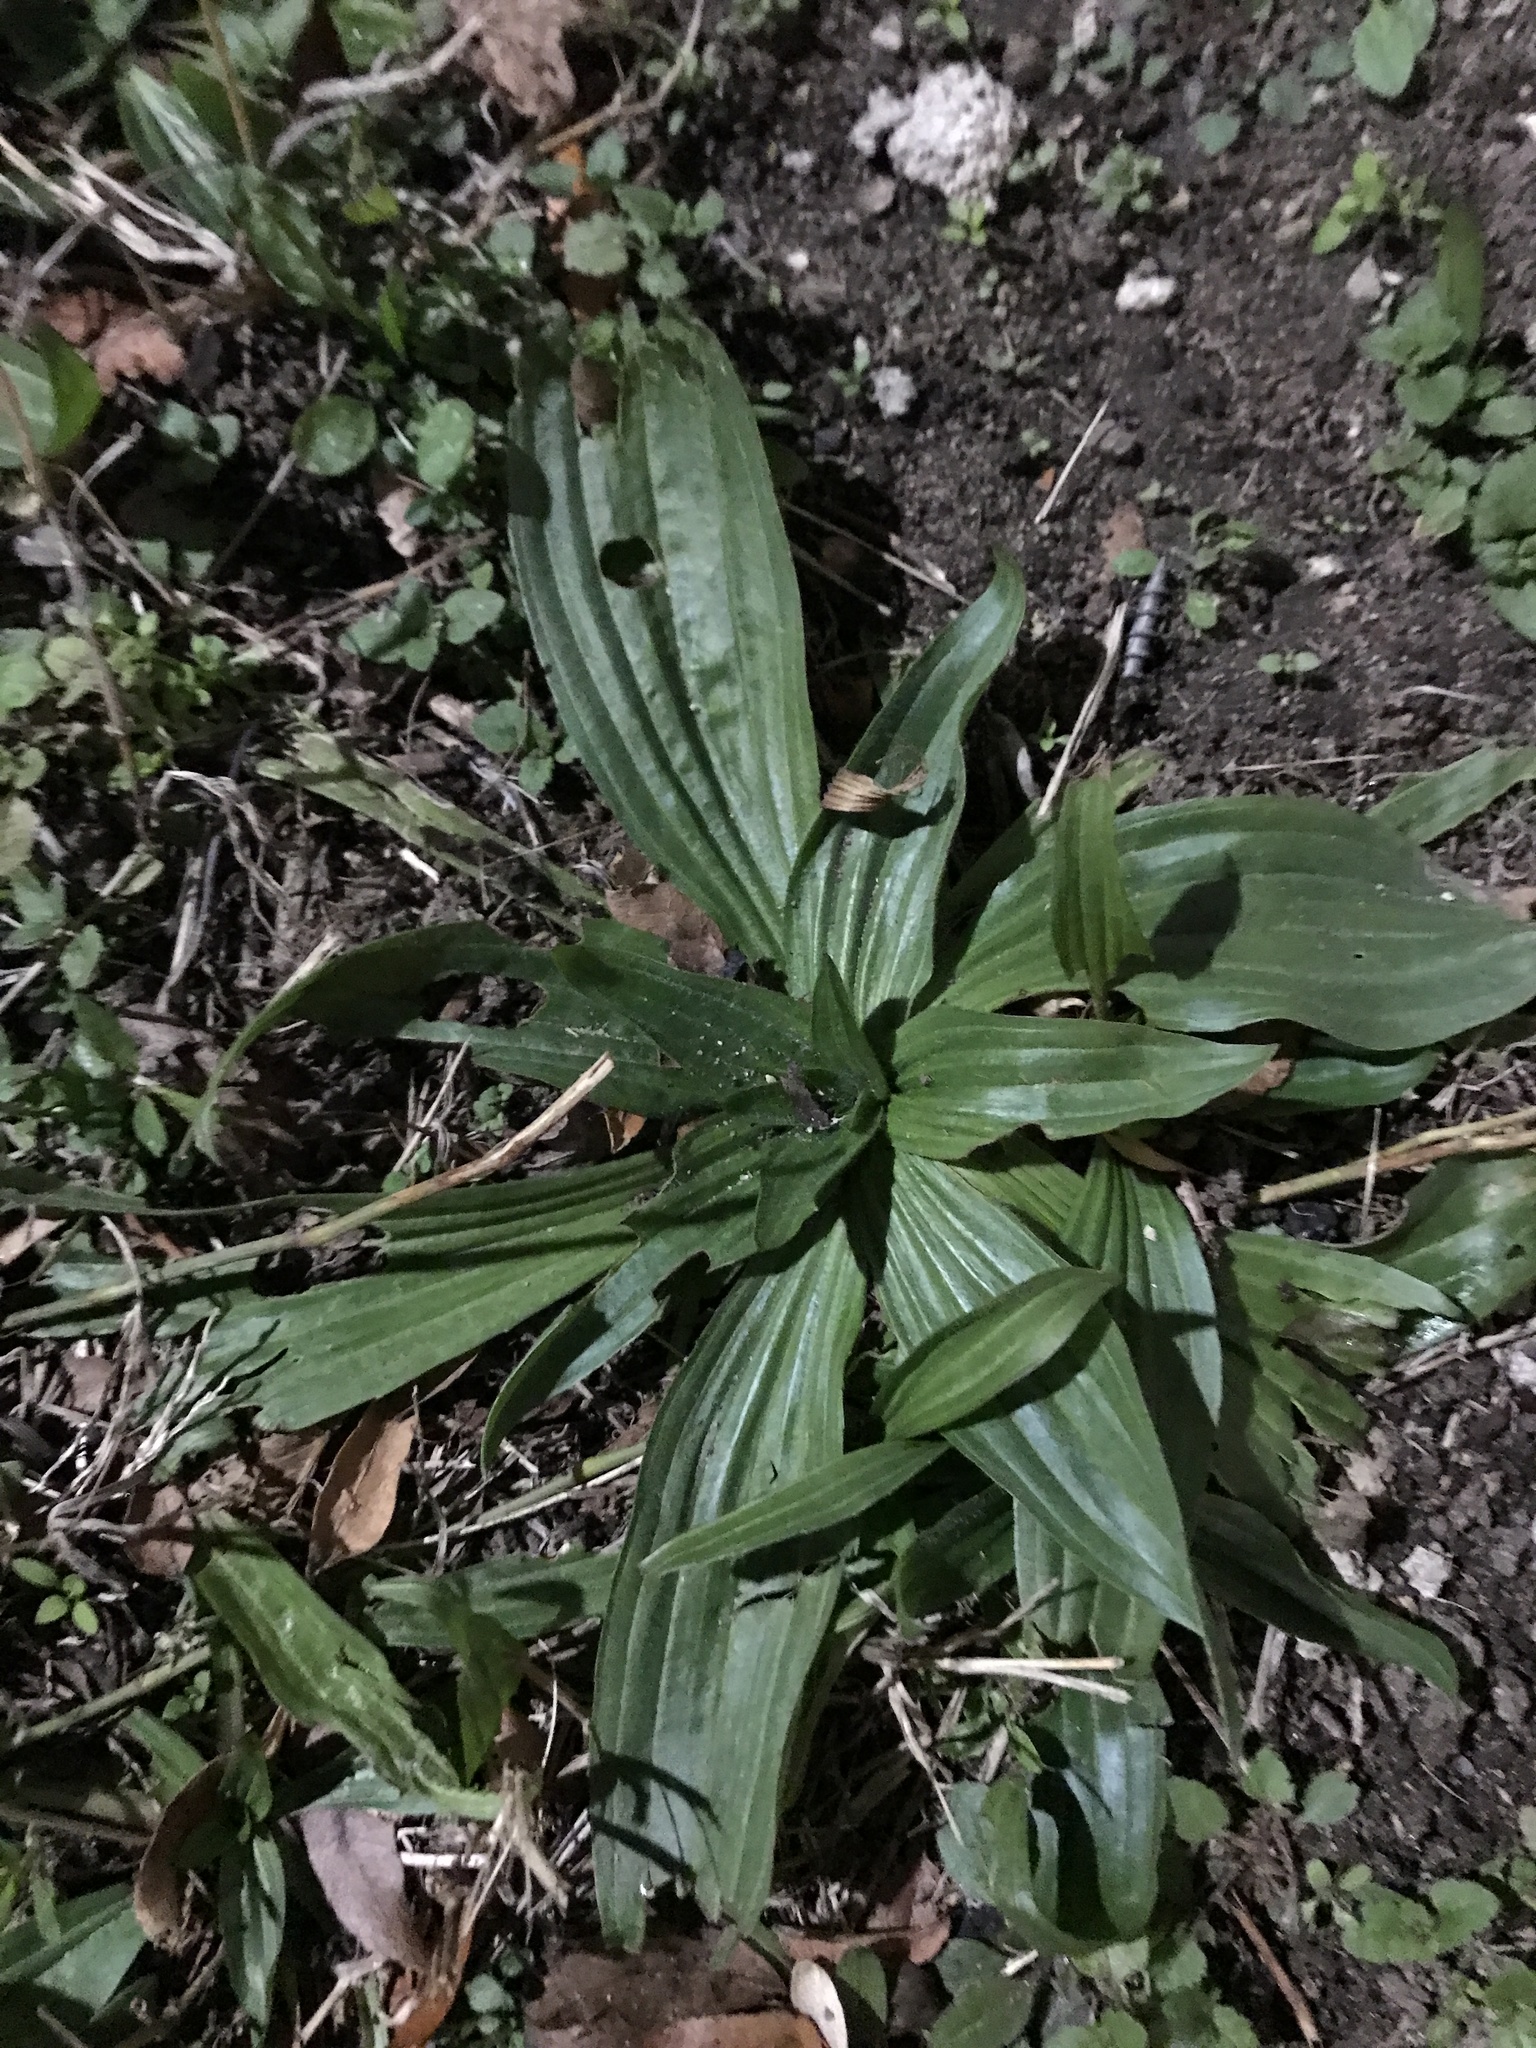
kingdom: Plantae
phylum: Tracheophyta
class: Magnoliopsida
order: Lamiales
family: Plantaginaceae
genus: Plantago
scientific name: Plantago lanceolata
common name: Ribwort plantain
